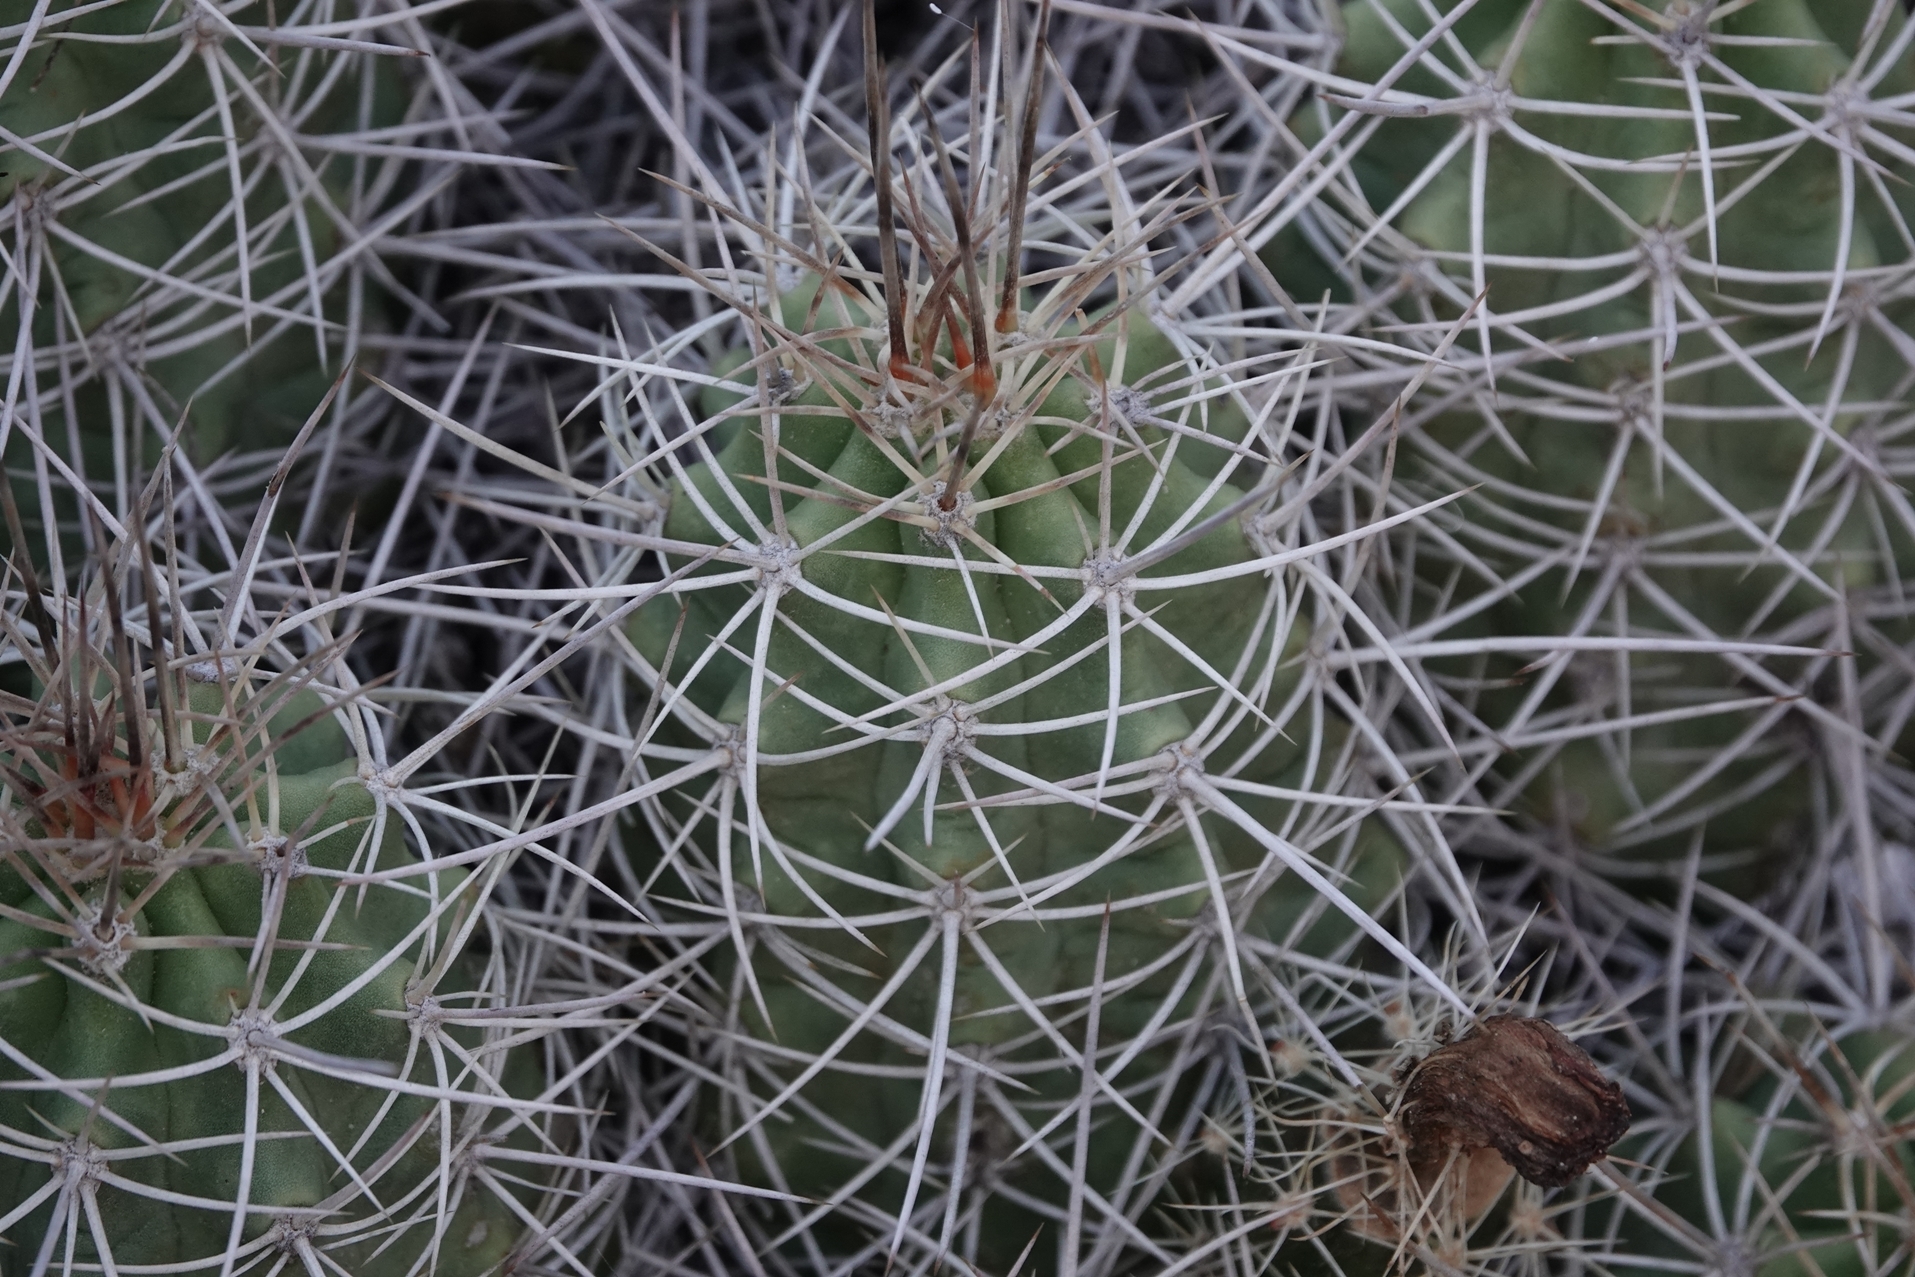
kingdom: Plantae
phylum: Tracheophyta
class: Magnoliopsida
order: Caryophyllales
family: Cactaceae
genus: Echinocereus
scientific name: Echinocereus triglochidiatus
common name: Claretcup hedgehog
